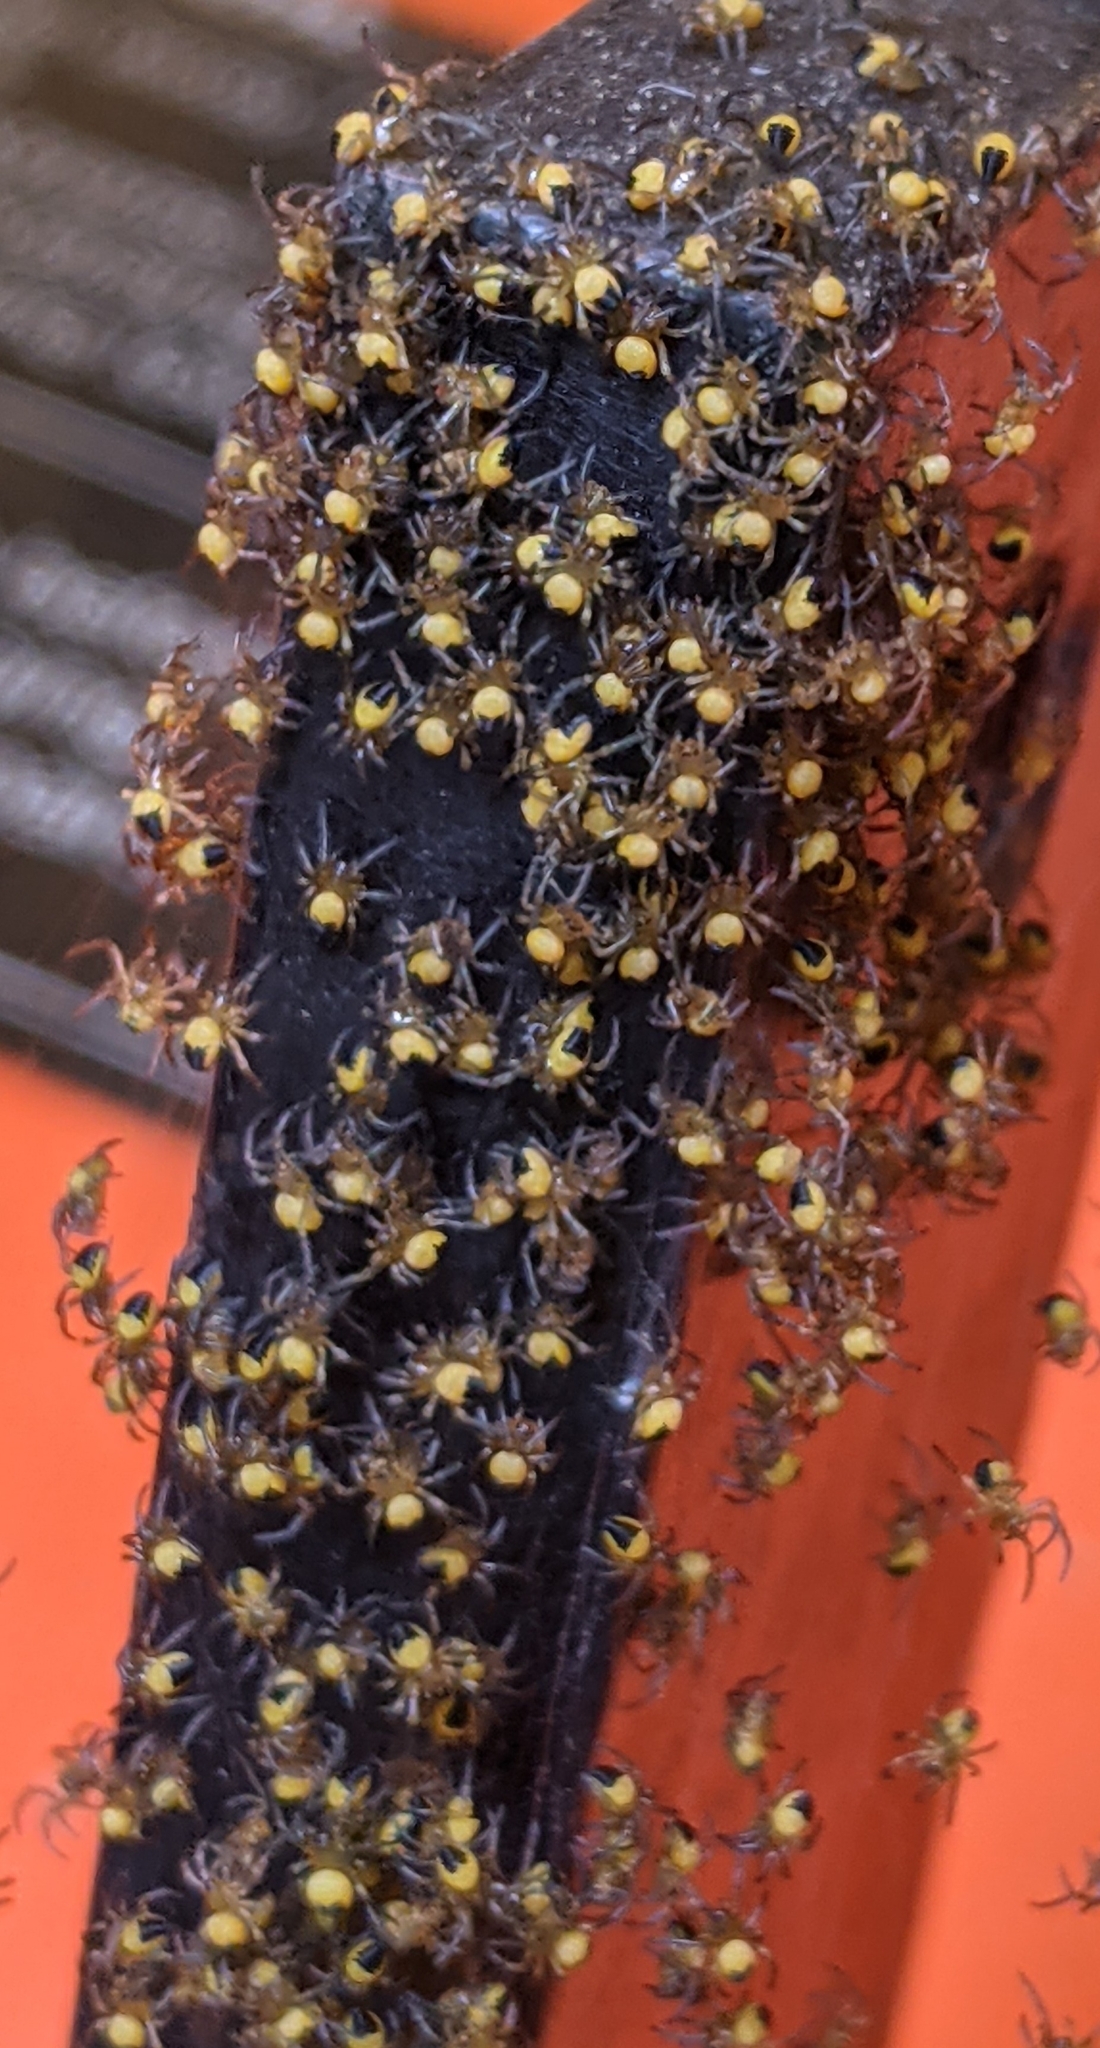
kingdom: Animalia
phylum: Arthropoda
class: Arachnida
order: Araneae
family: Araneidae
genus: Araneus
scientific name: Araneus
